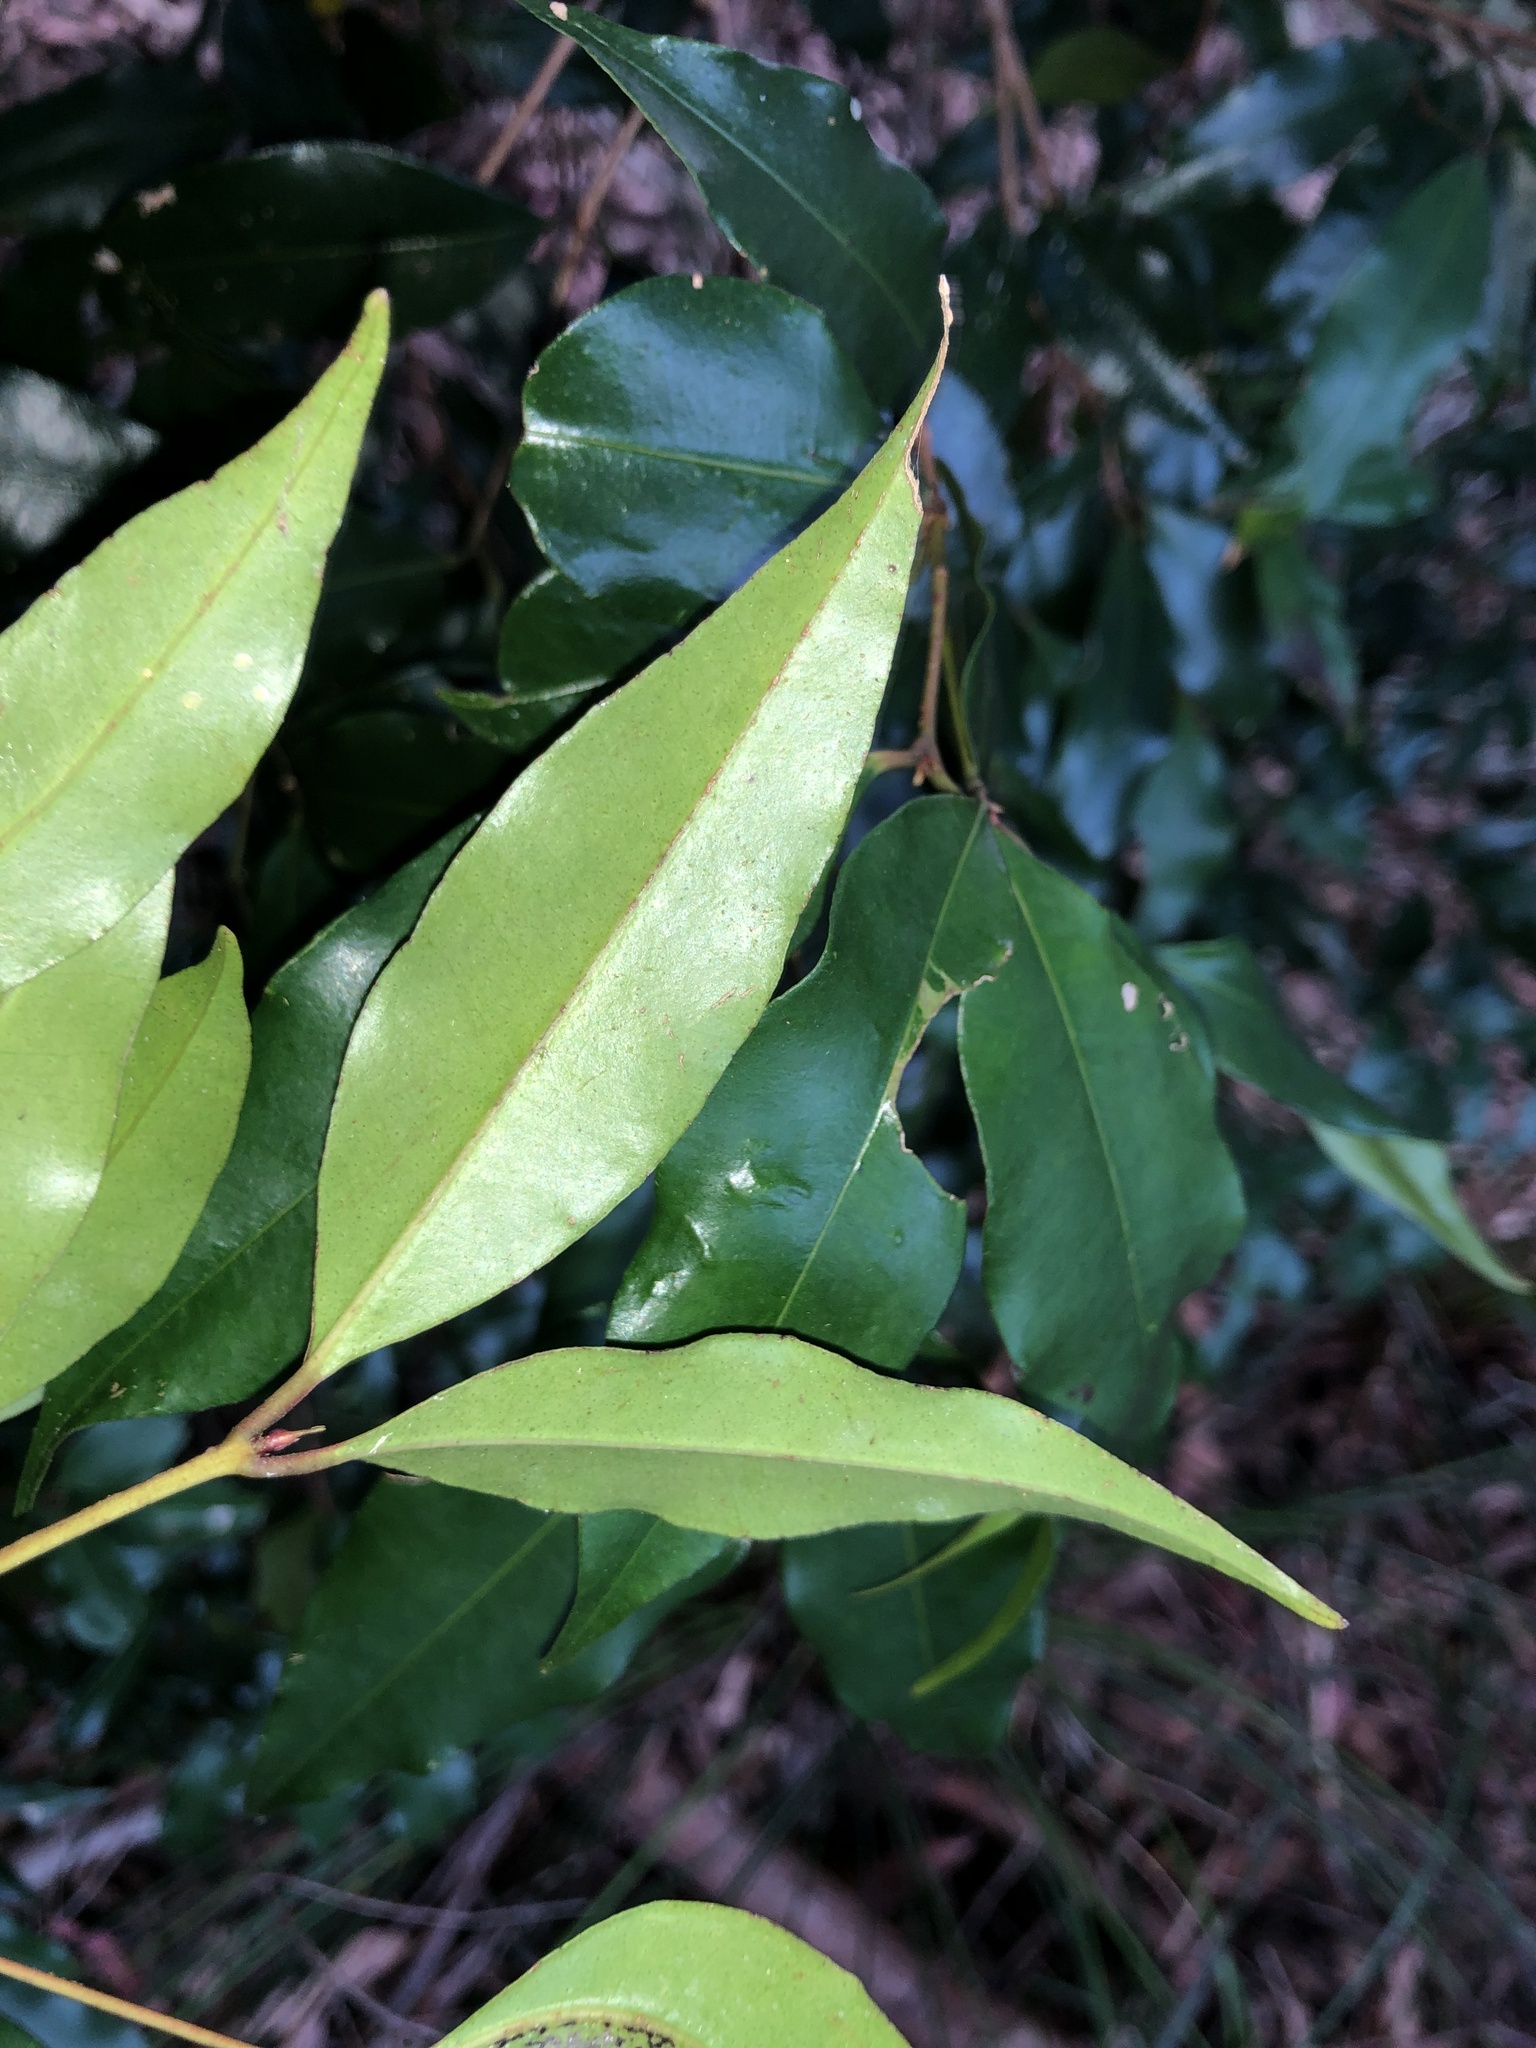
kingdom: Plantae
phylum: Tracheophyta
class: Magnoliopsida
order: Myrtales
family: Myrtaceae
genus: Syzygium
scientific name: Syzygium oleosum
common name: Oily satin-ash
